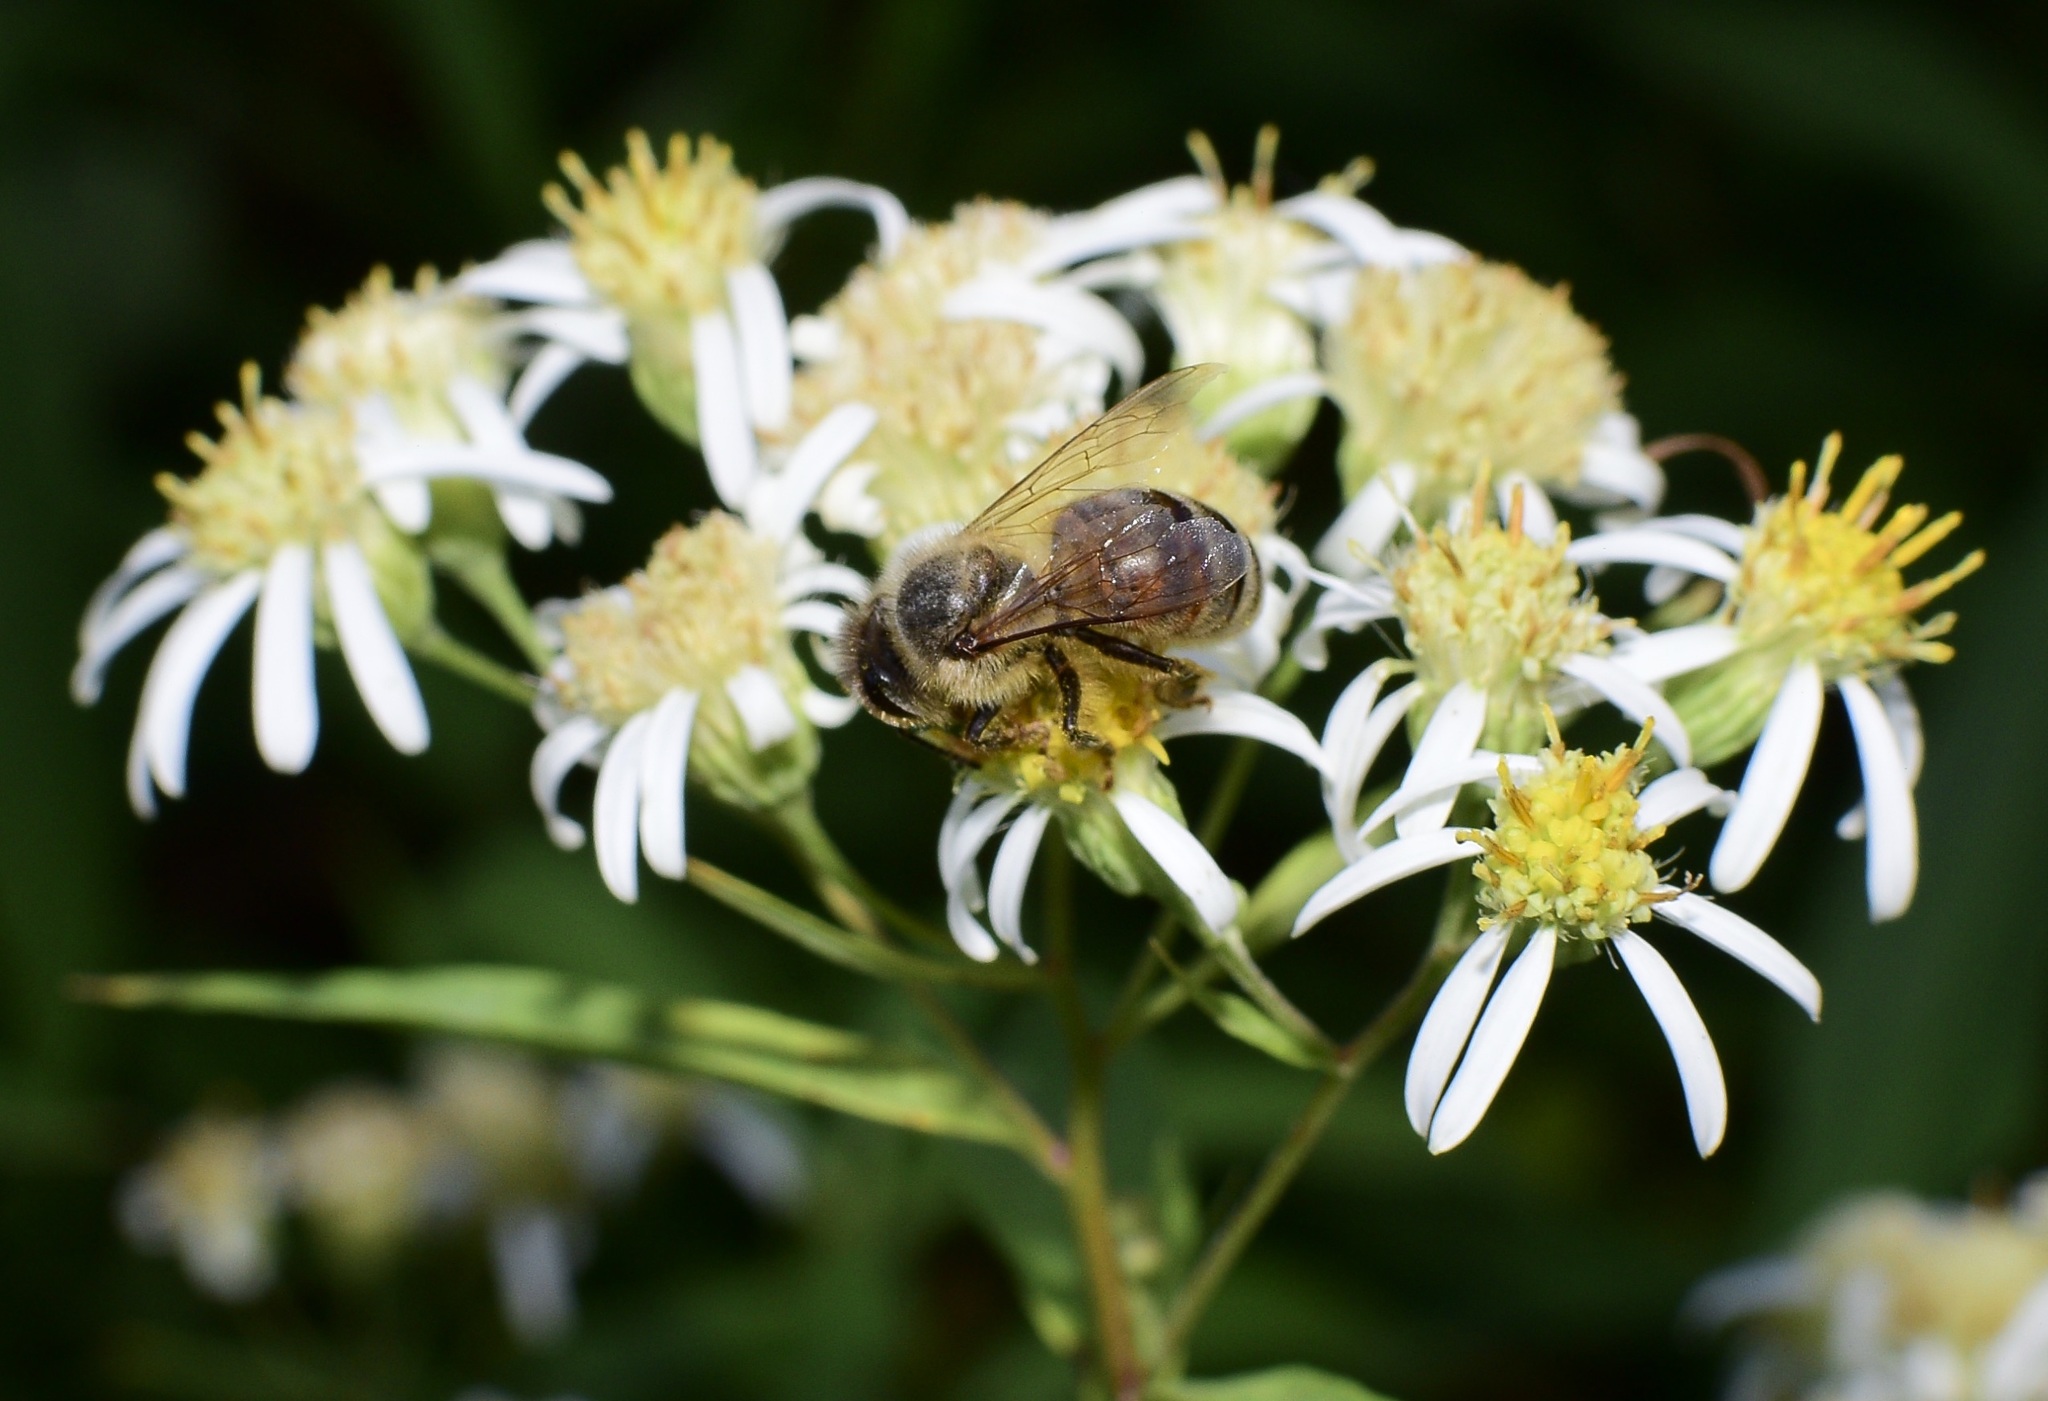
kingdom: Animalia
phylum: Arthropoda
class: Insecta
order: Hymenoptera
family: Apidae
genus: Apis
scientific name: Apis mellifera
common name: Honey bee
